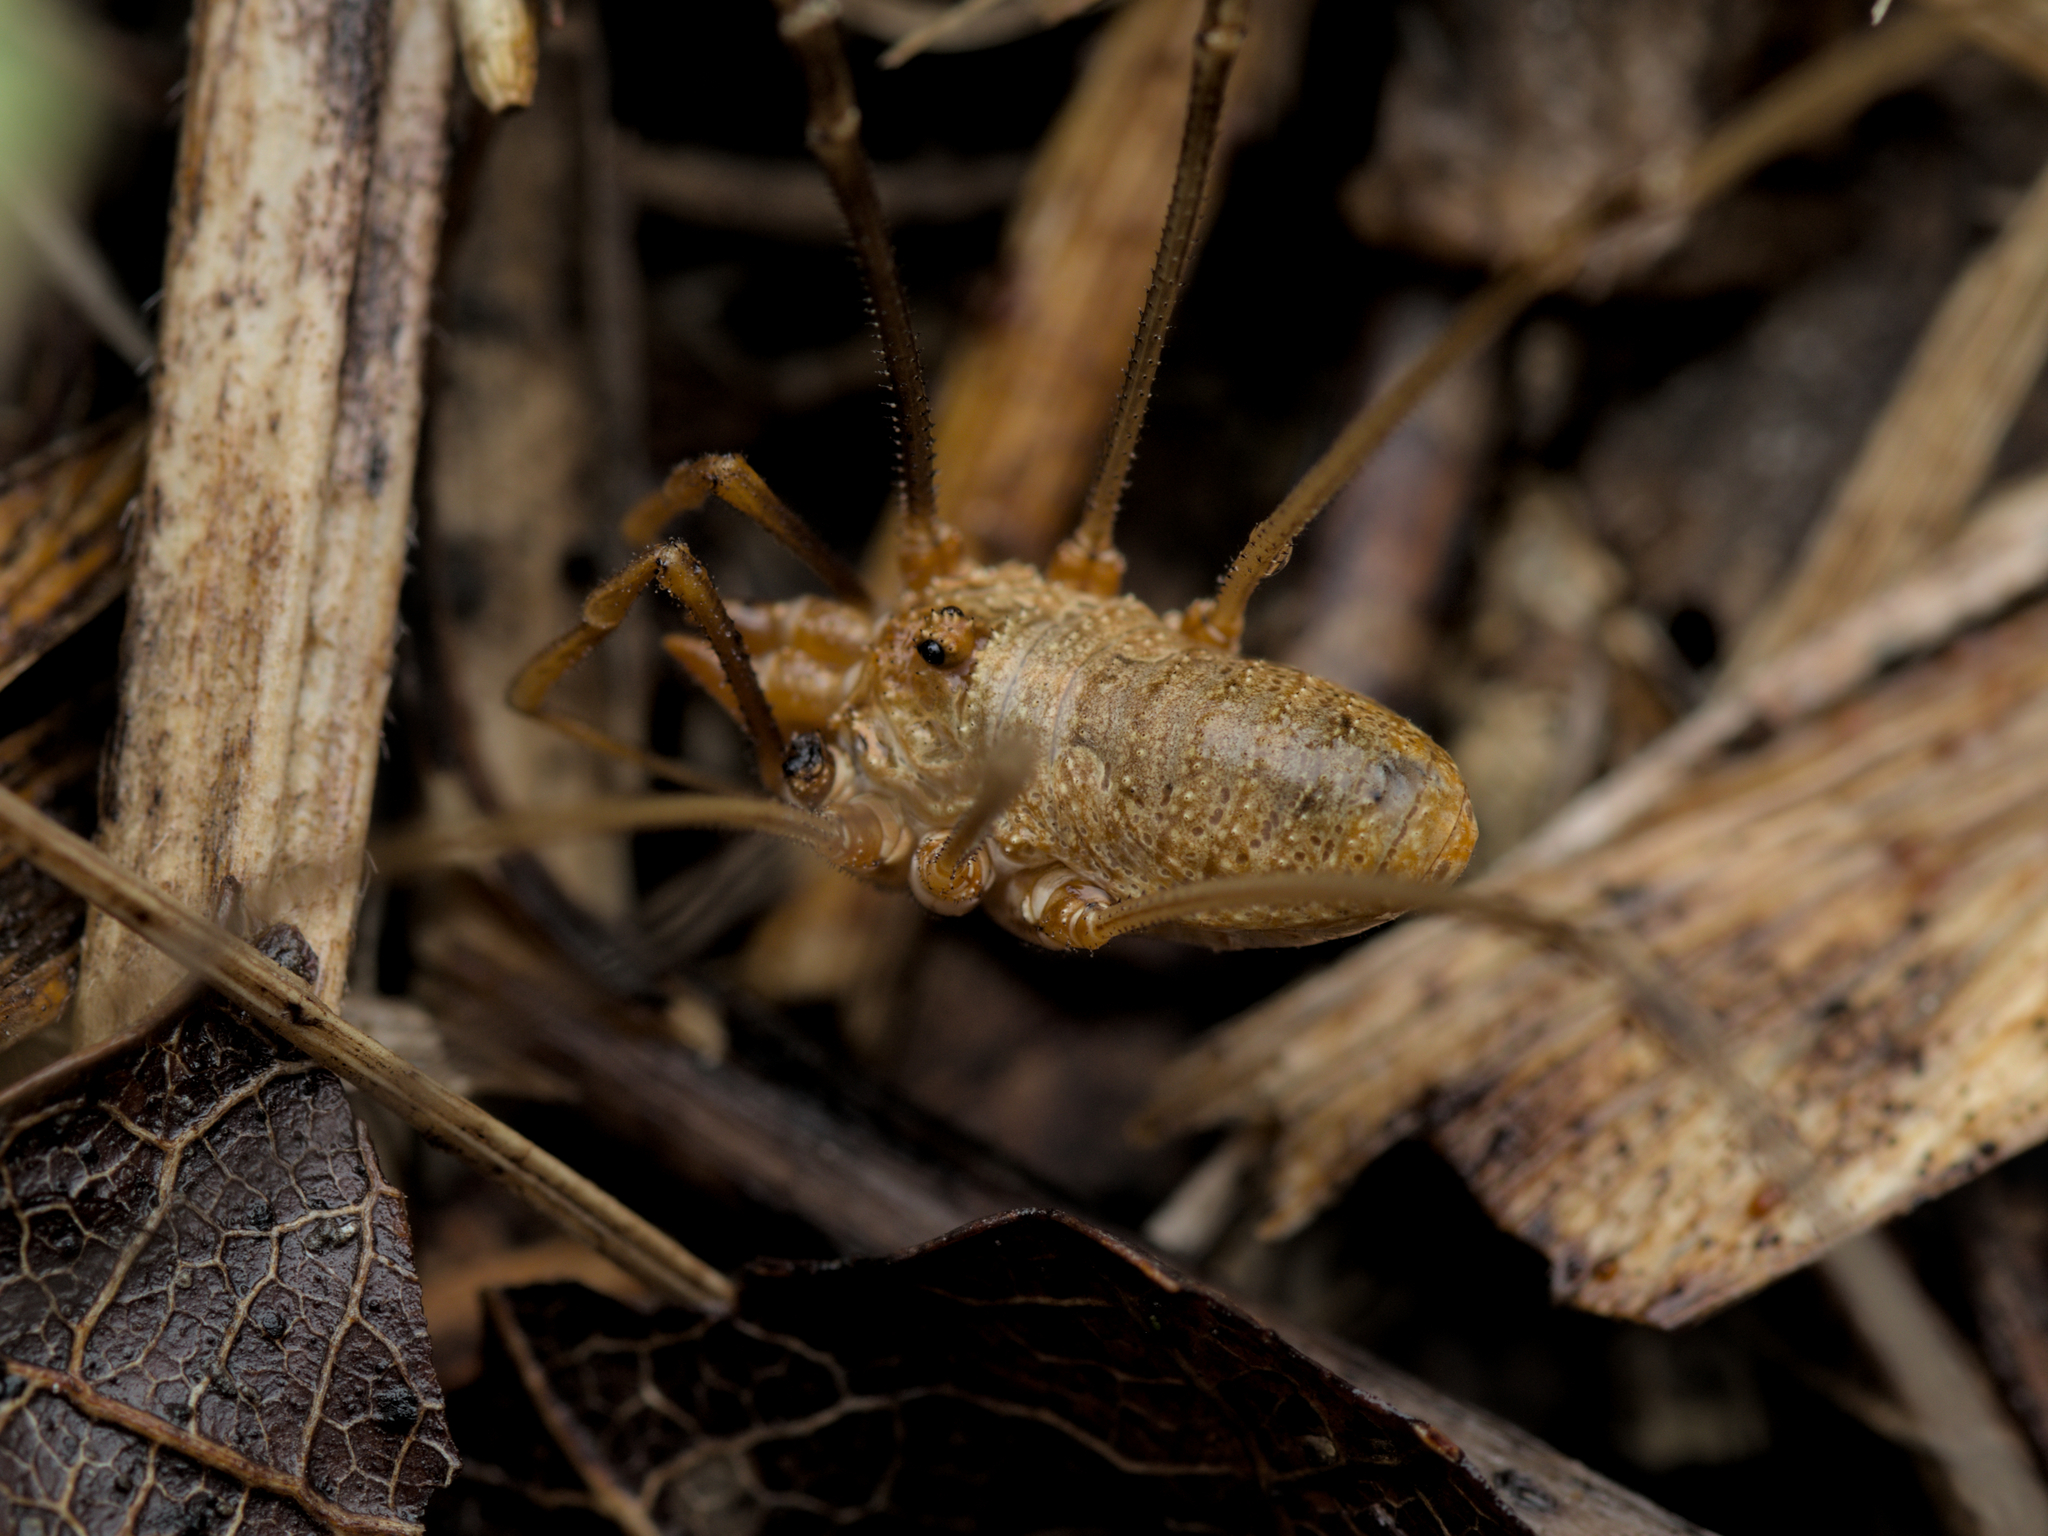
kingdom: Animalia
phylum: Arthropoda
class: Arachnida
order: Opiliones
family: Phalangiidae
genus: Phalangium
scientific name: Phalangium opilio
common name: Daddy longleg
